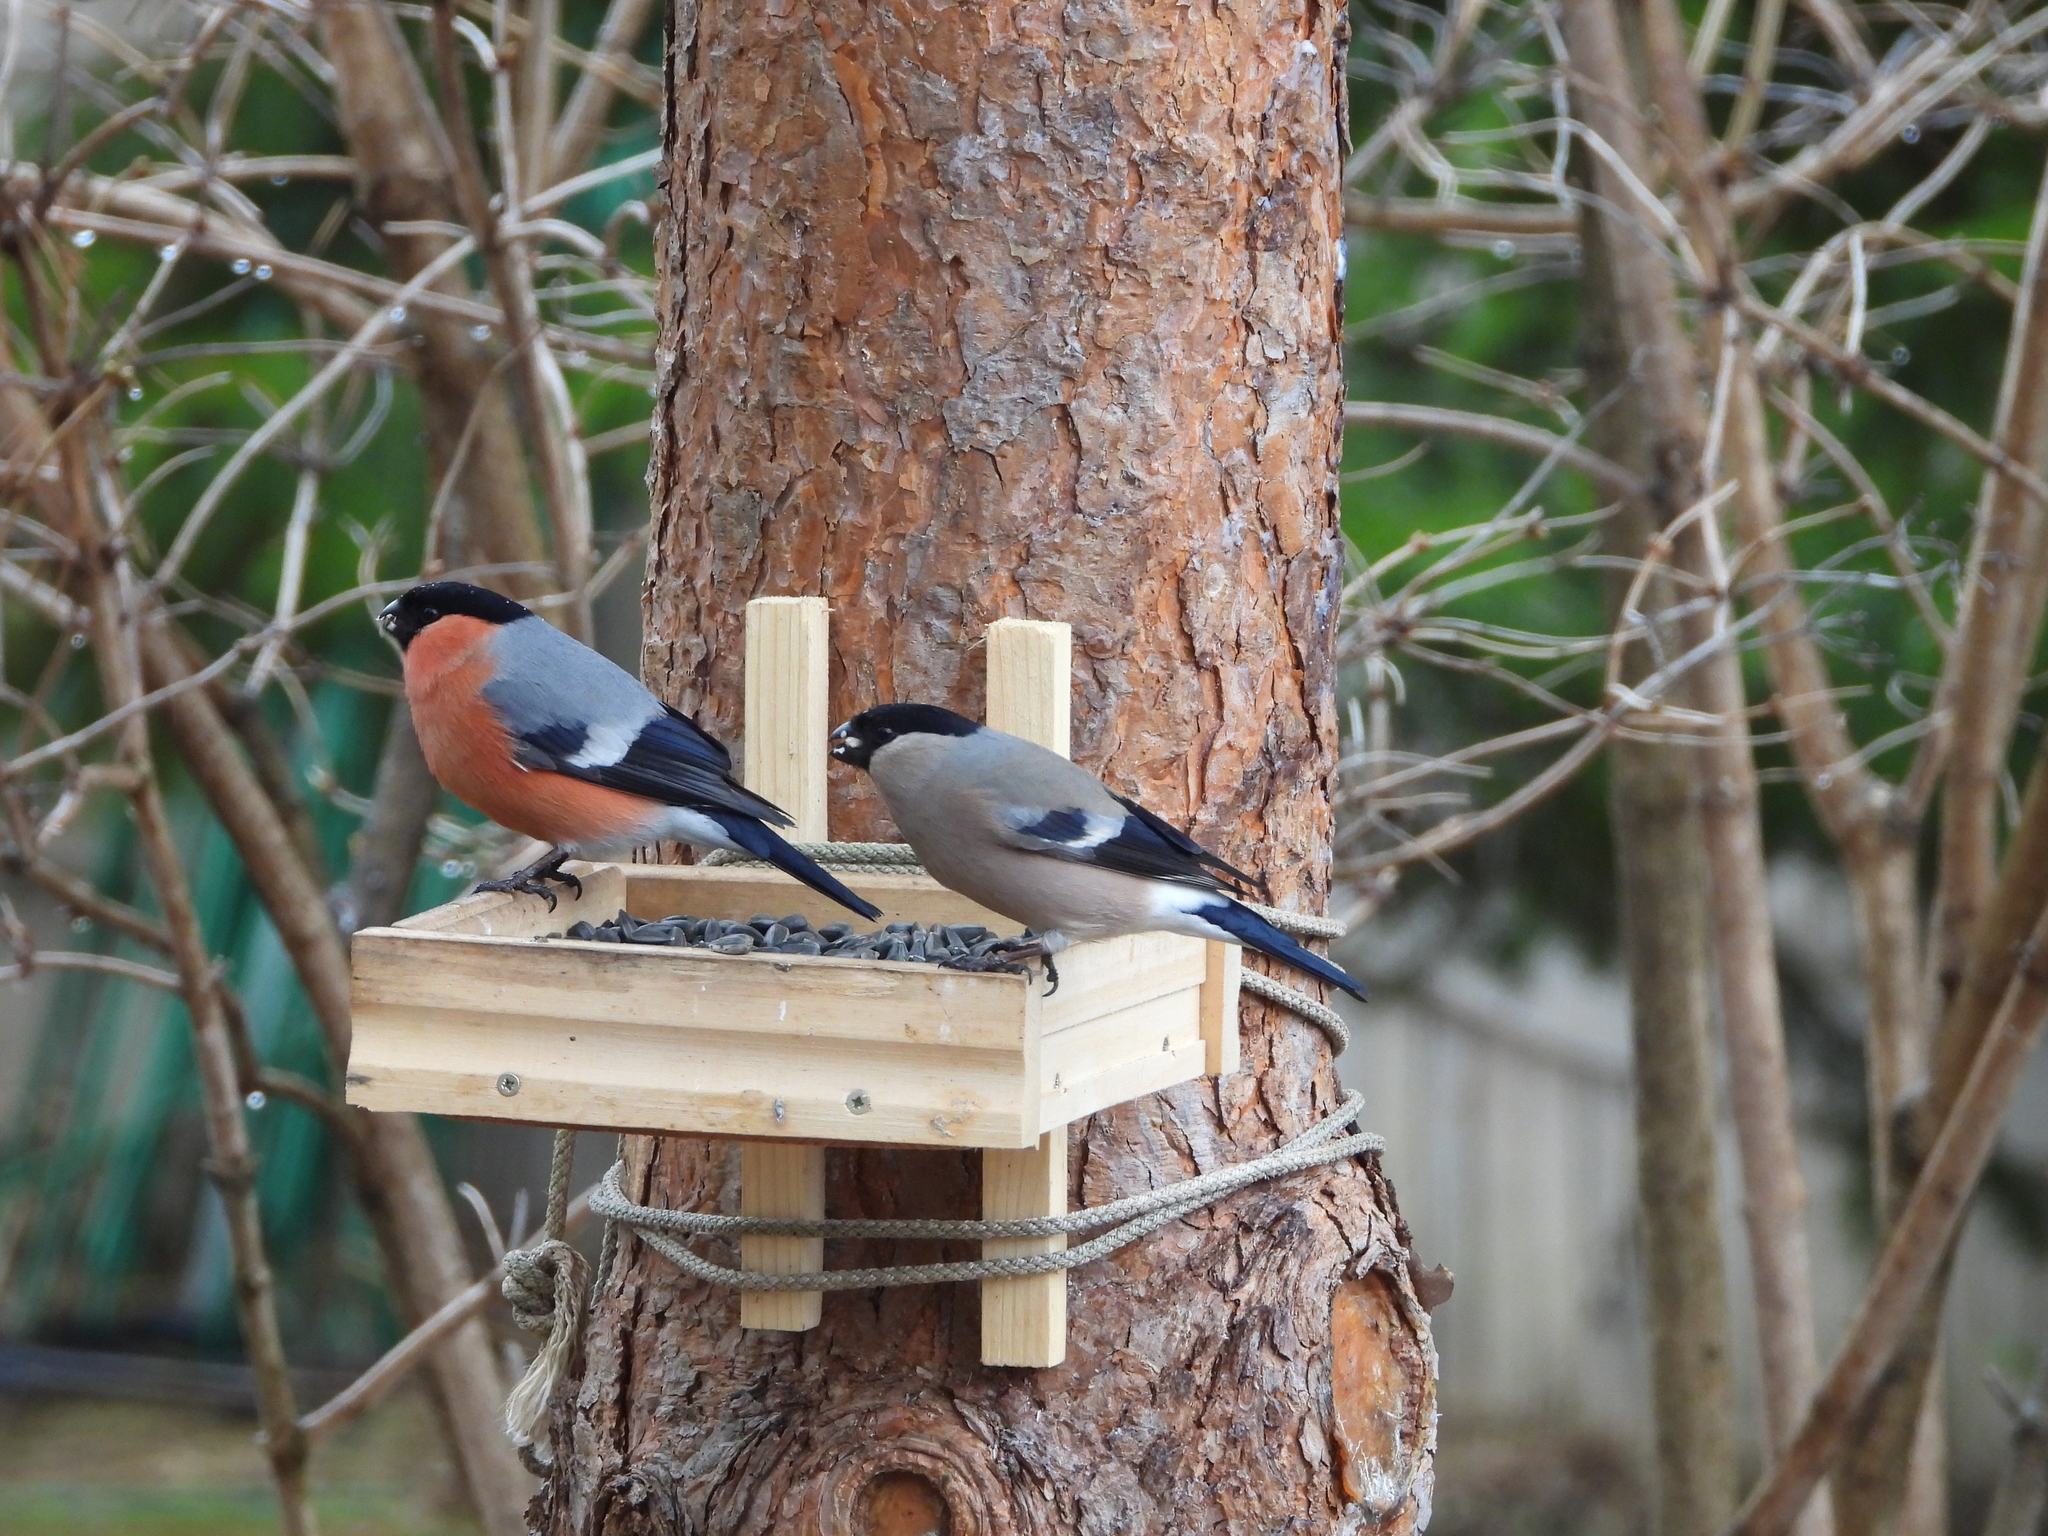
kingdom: Animalia
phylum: Chordata
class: Aves
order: Passeriformes
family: Fringillidae
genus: Pyrrhula
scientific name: Pyrrhula pyrrhula
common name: Eurasian bullfinch
